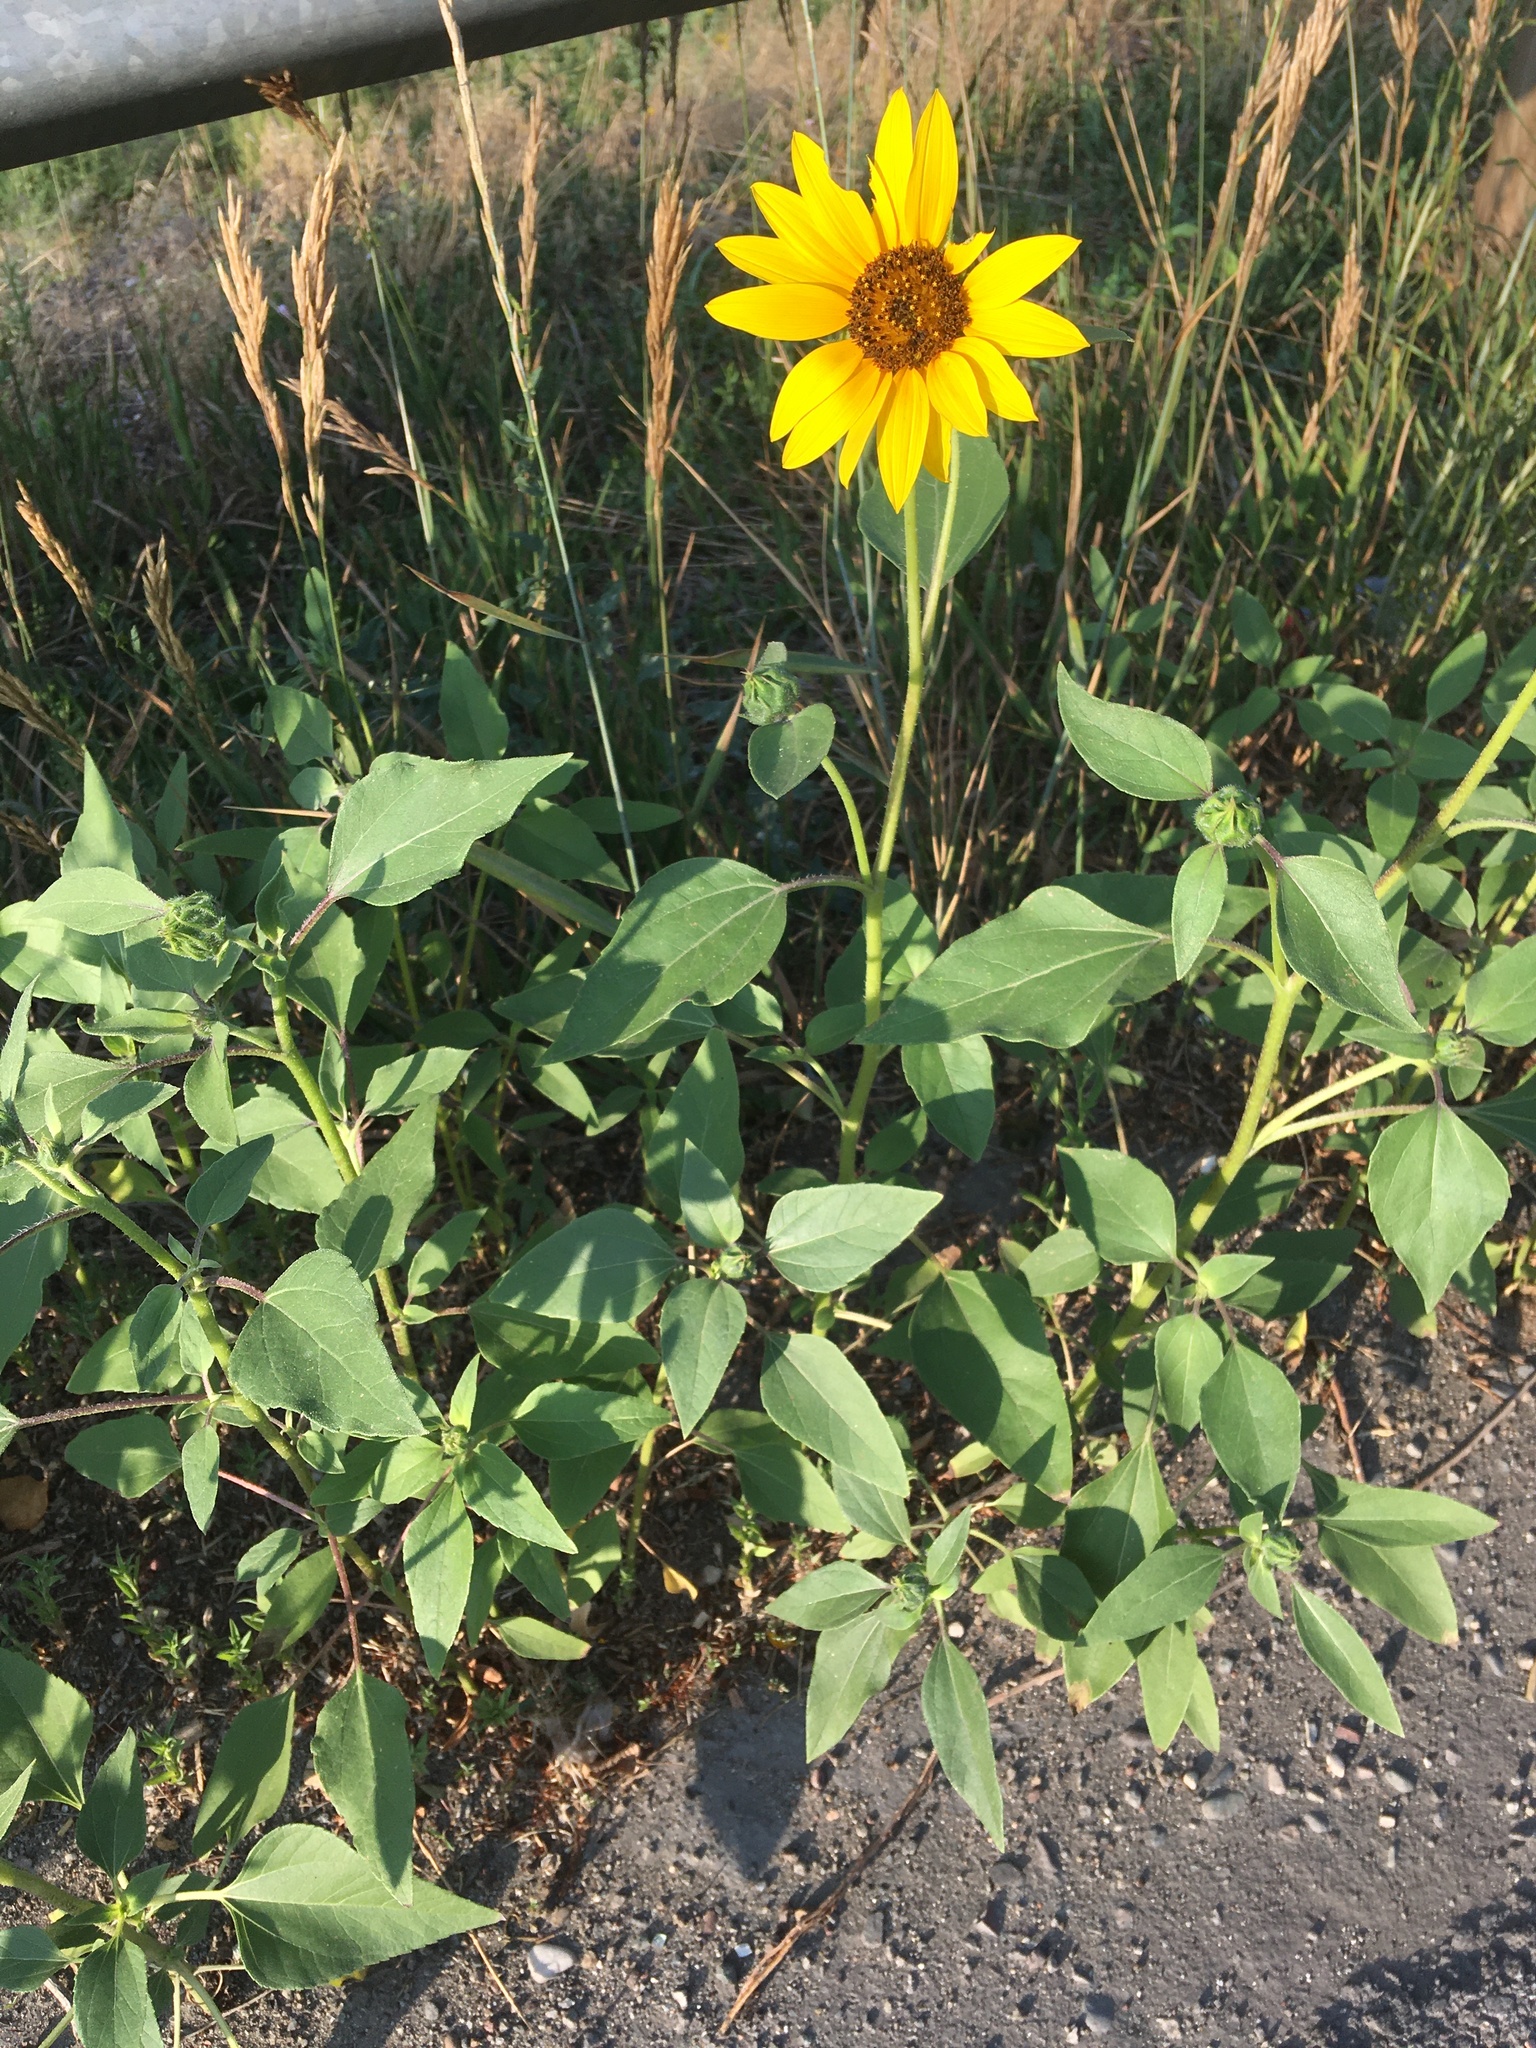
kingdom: Plantae
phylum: Tracheophyta
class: Magnoliopsida
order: Asterales
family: Asteraceae
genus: Helianthus
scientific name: Helianthus annuus
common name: Sunflower
